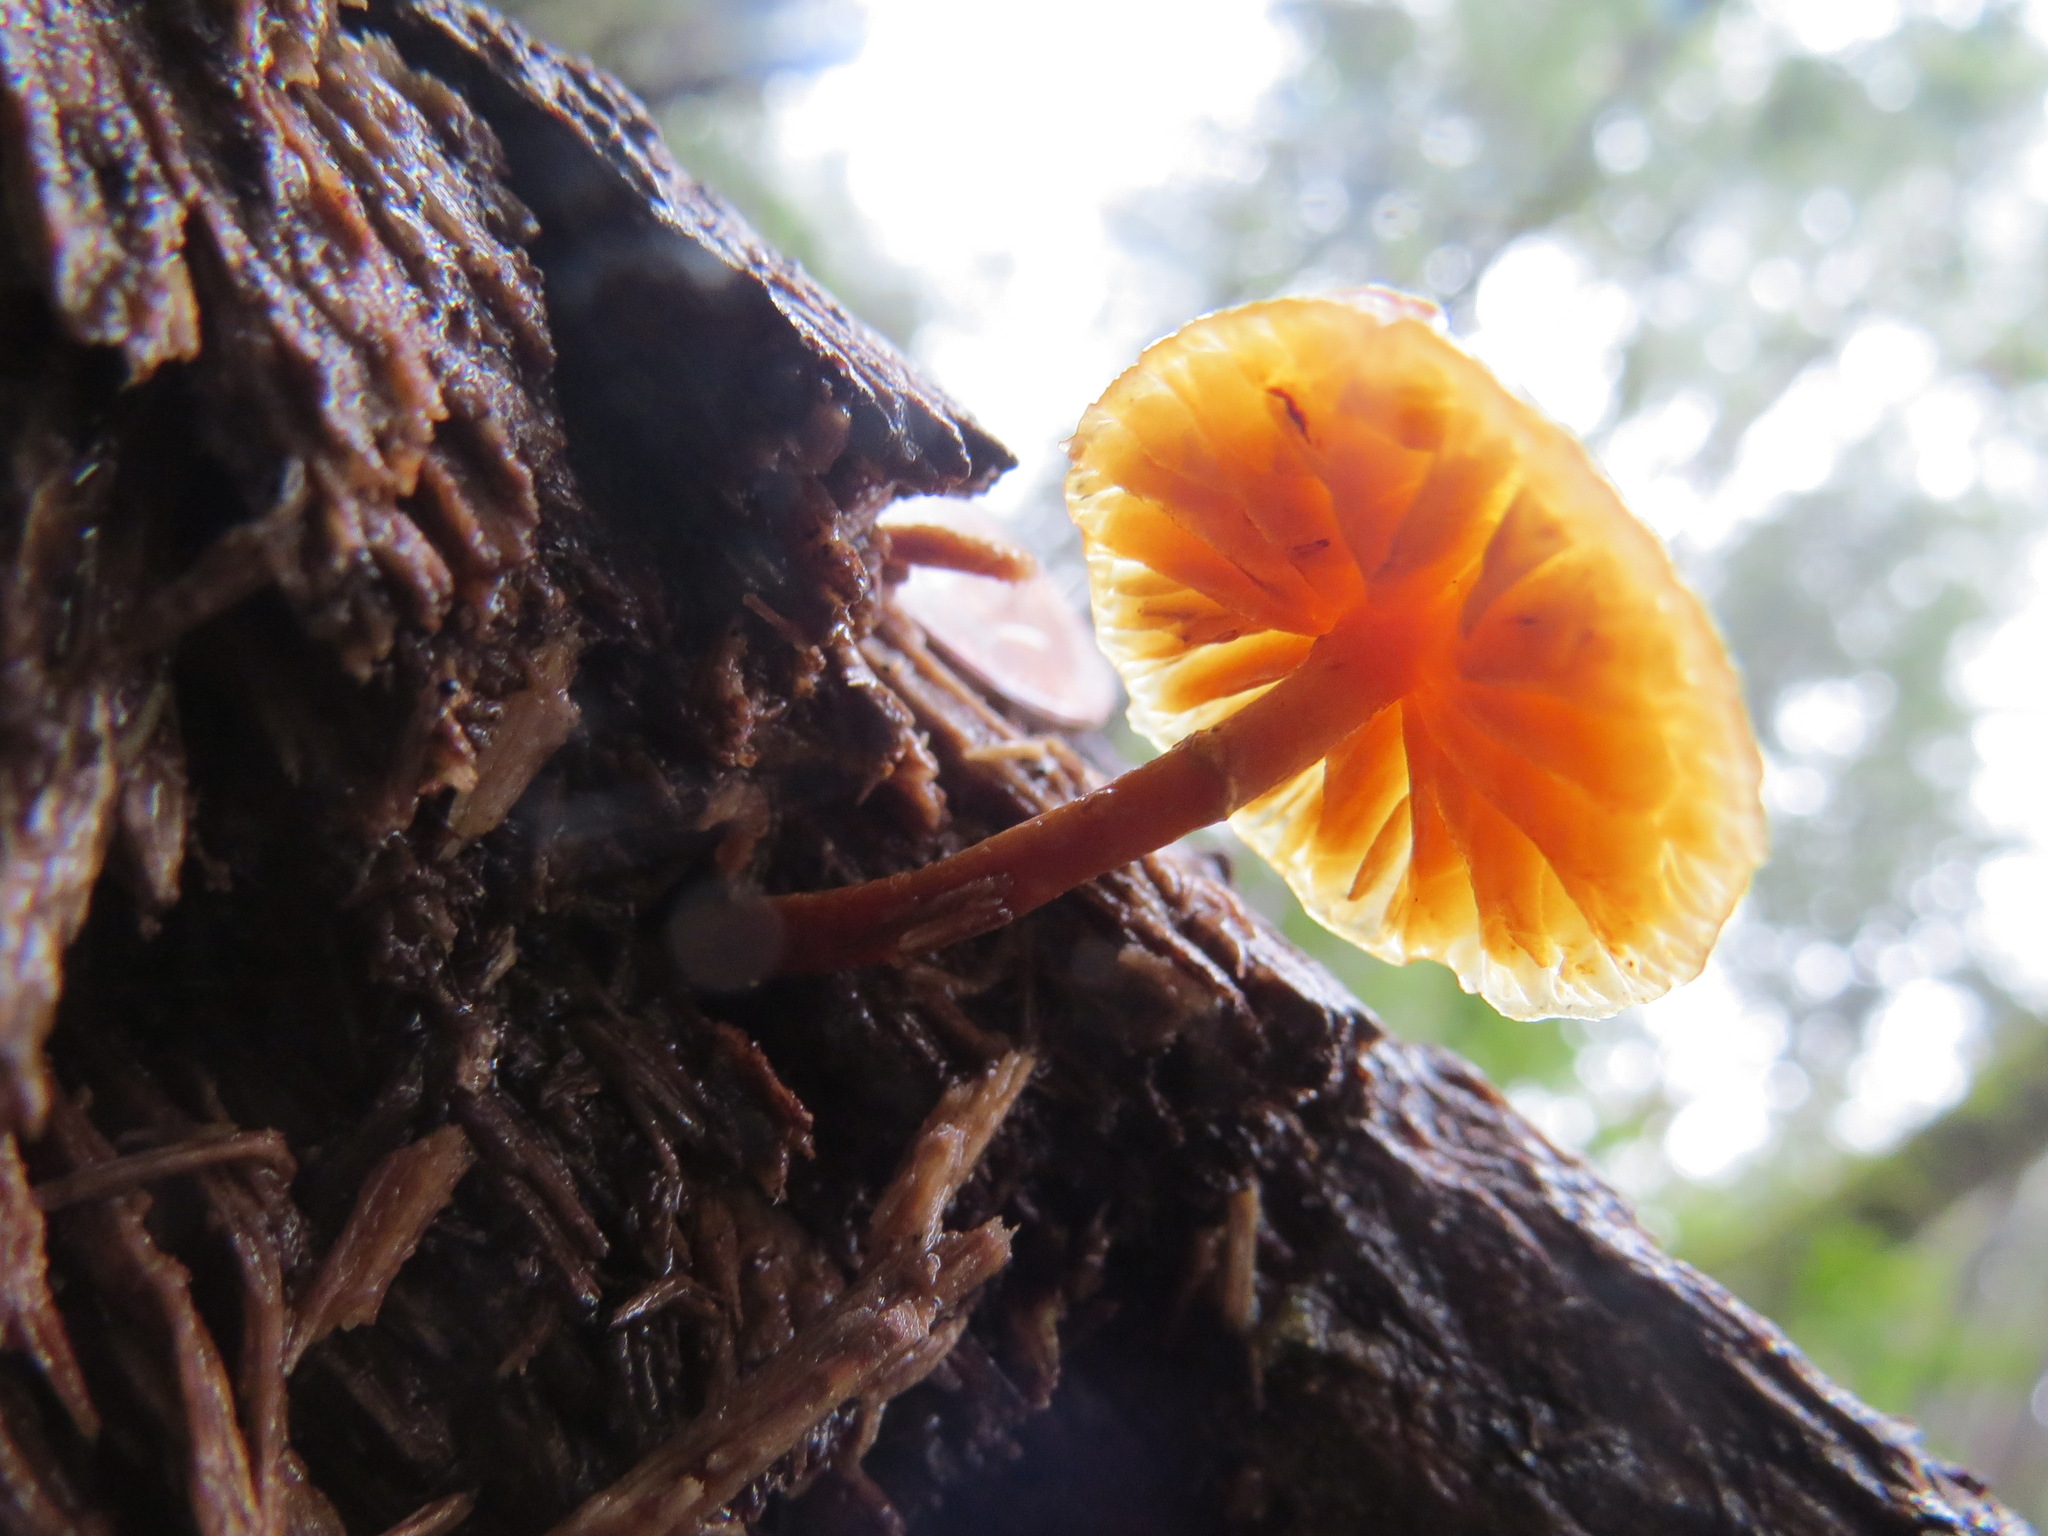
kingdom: Fungi
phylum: Basidiomycota
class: Agaricomycetes
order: Agaricales
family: Hymenogastraceae
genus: Galerina
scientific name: Galerina marginata
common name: Funeral bell
